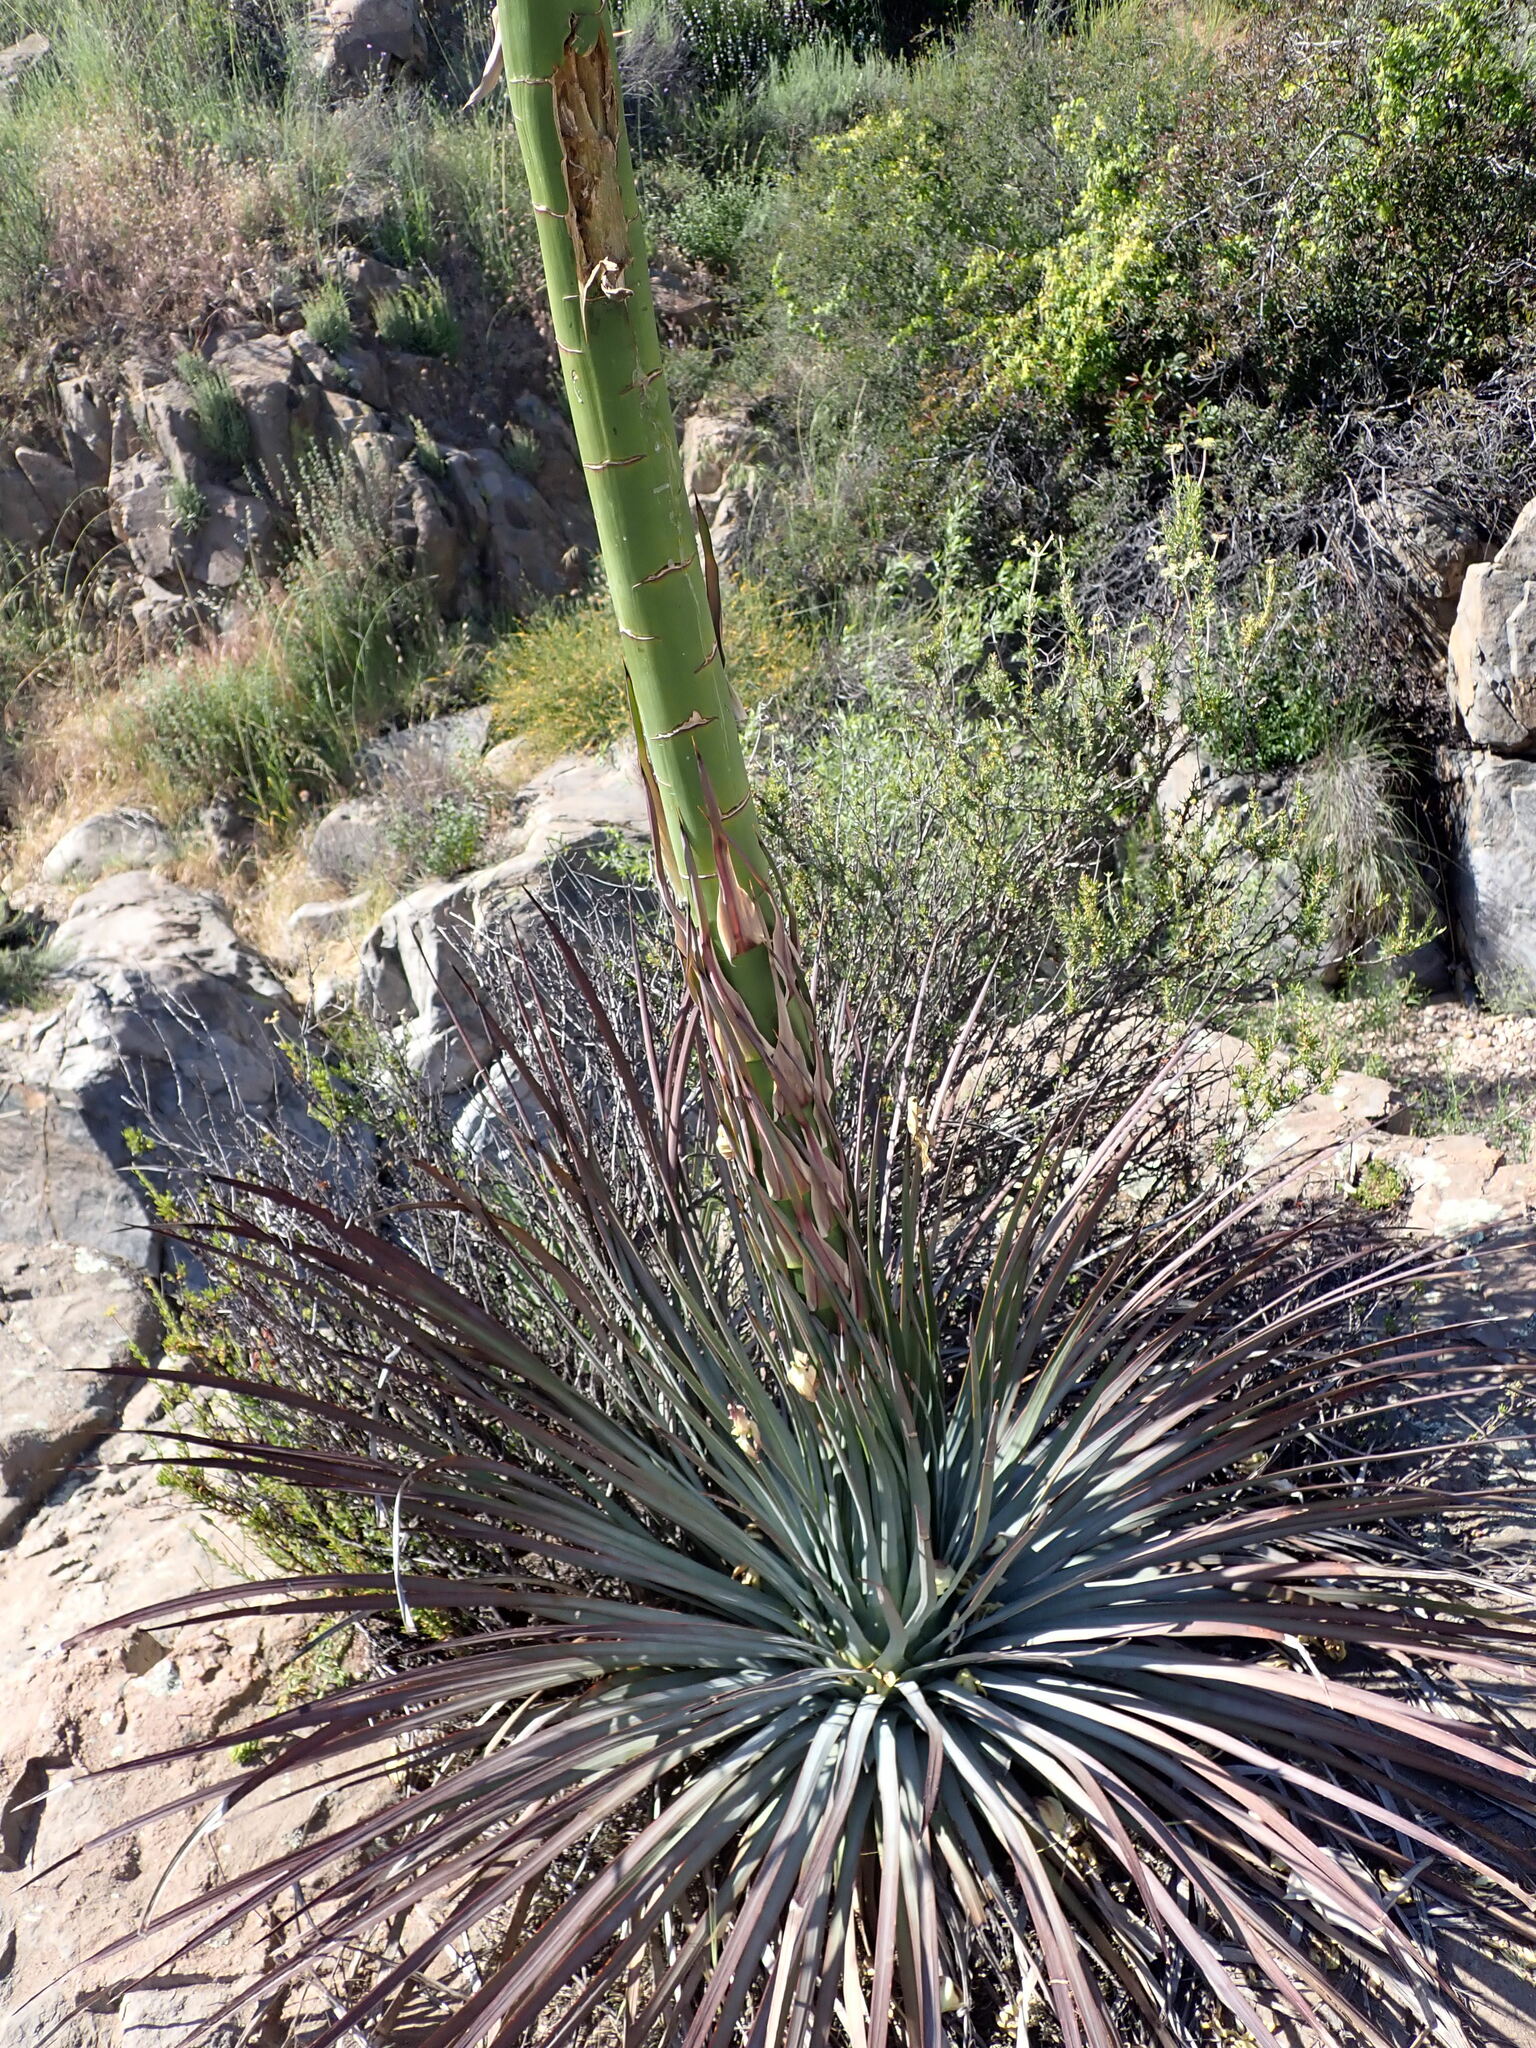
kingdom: Plantae
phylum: Tracheophyta
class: Liliopsida
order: Asparagales
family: Asparagaceae
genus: Hesperoyucca
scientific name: Hesperoyucca whipplei
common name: Our lord's-candle
